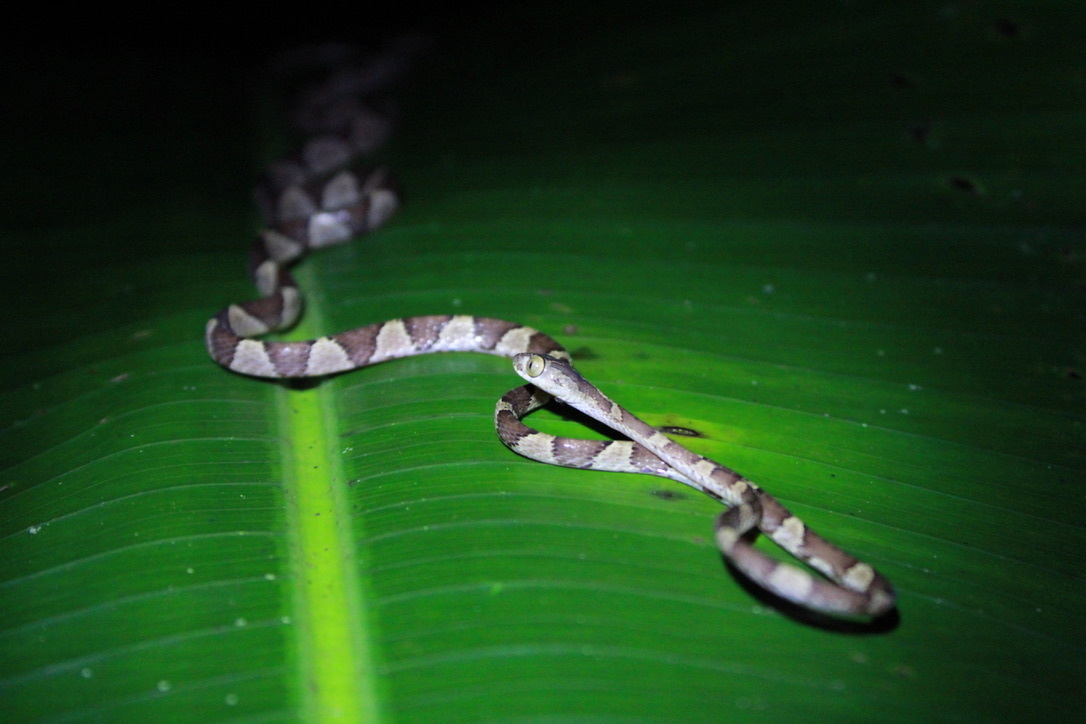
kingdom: Animalia
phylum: Chordata
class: Squamata
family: Colubridae
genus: Imantodes
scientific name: Imantodes cenchoa
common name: Blunthead tree snake
